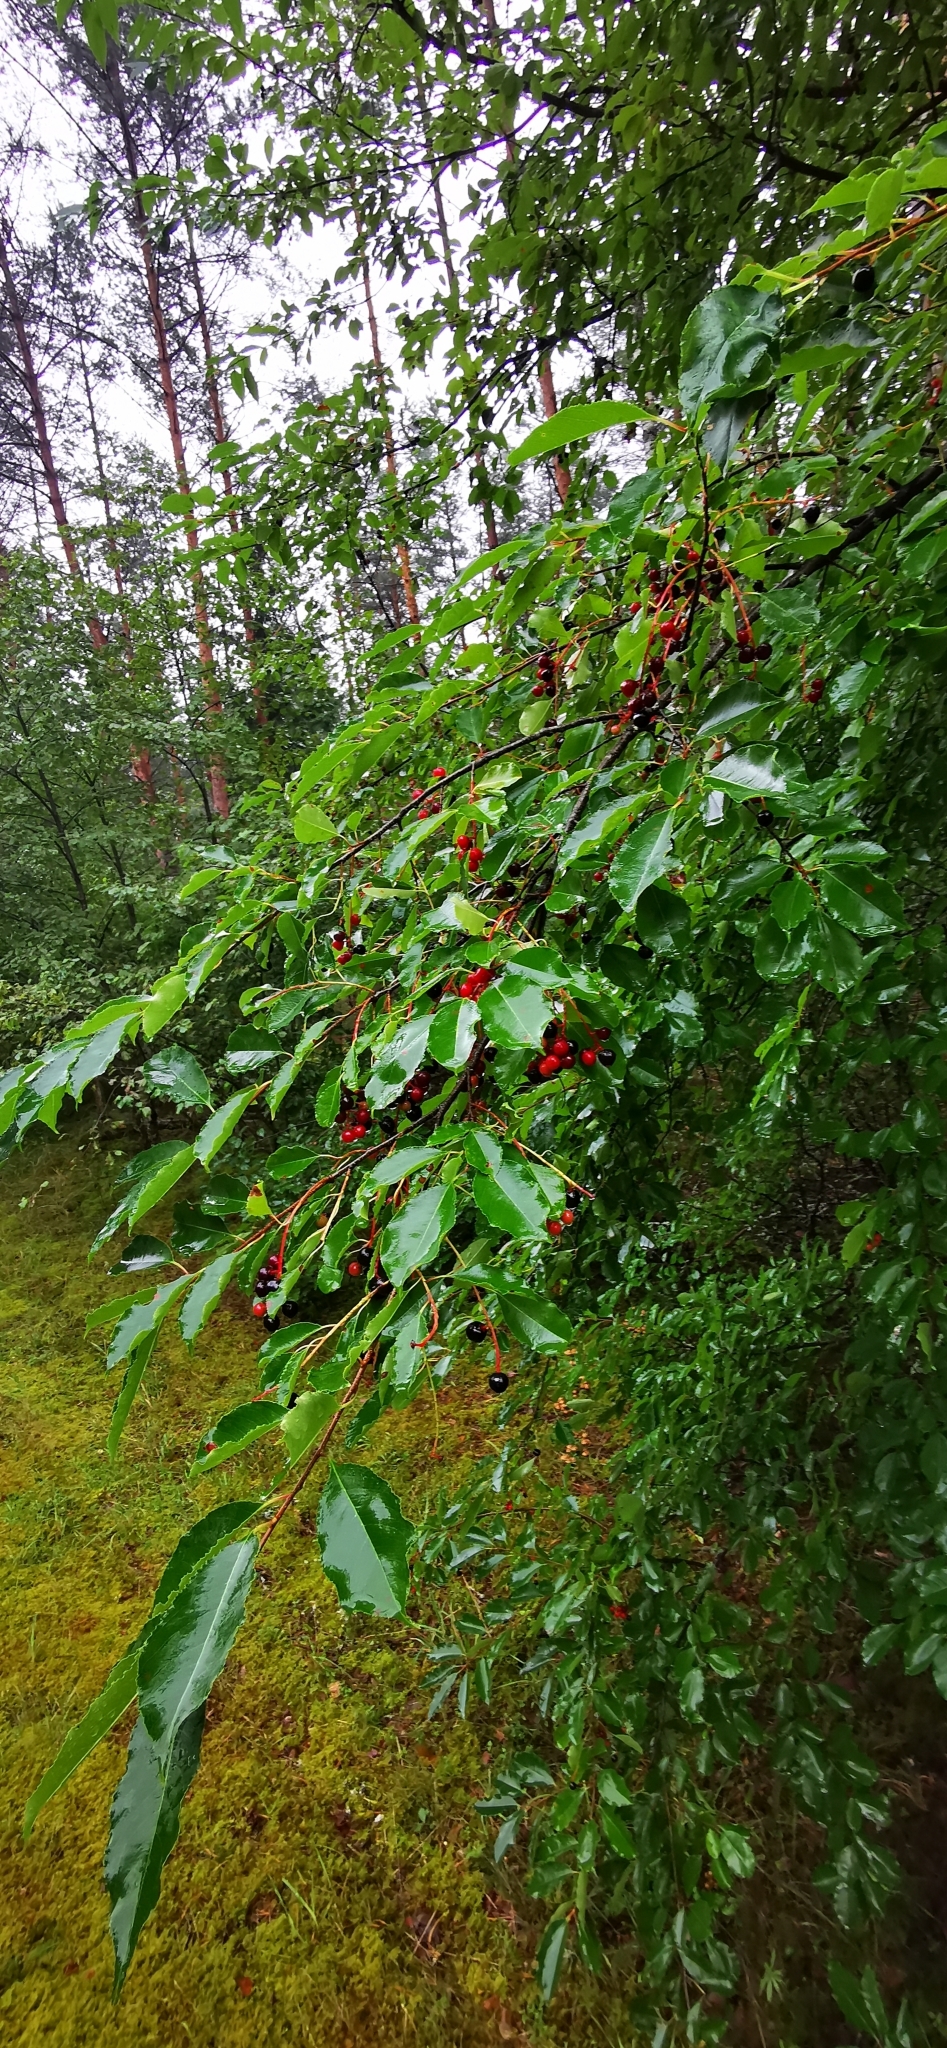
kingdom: Plantae
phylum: Tracheophyta
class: Magnoliopsida
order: Rosales
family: Rosaceae
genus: Prunus
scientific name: Prunus serotina
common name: Black cherry
